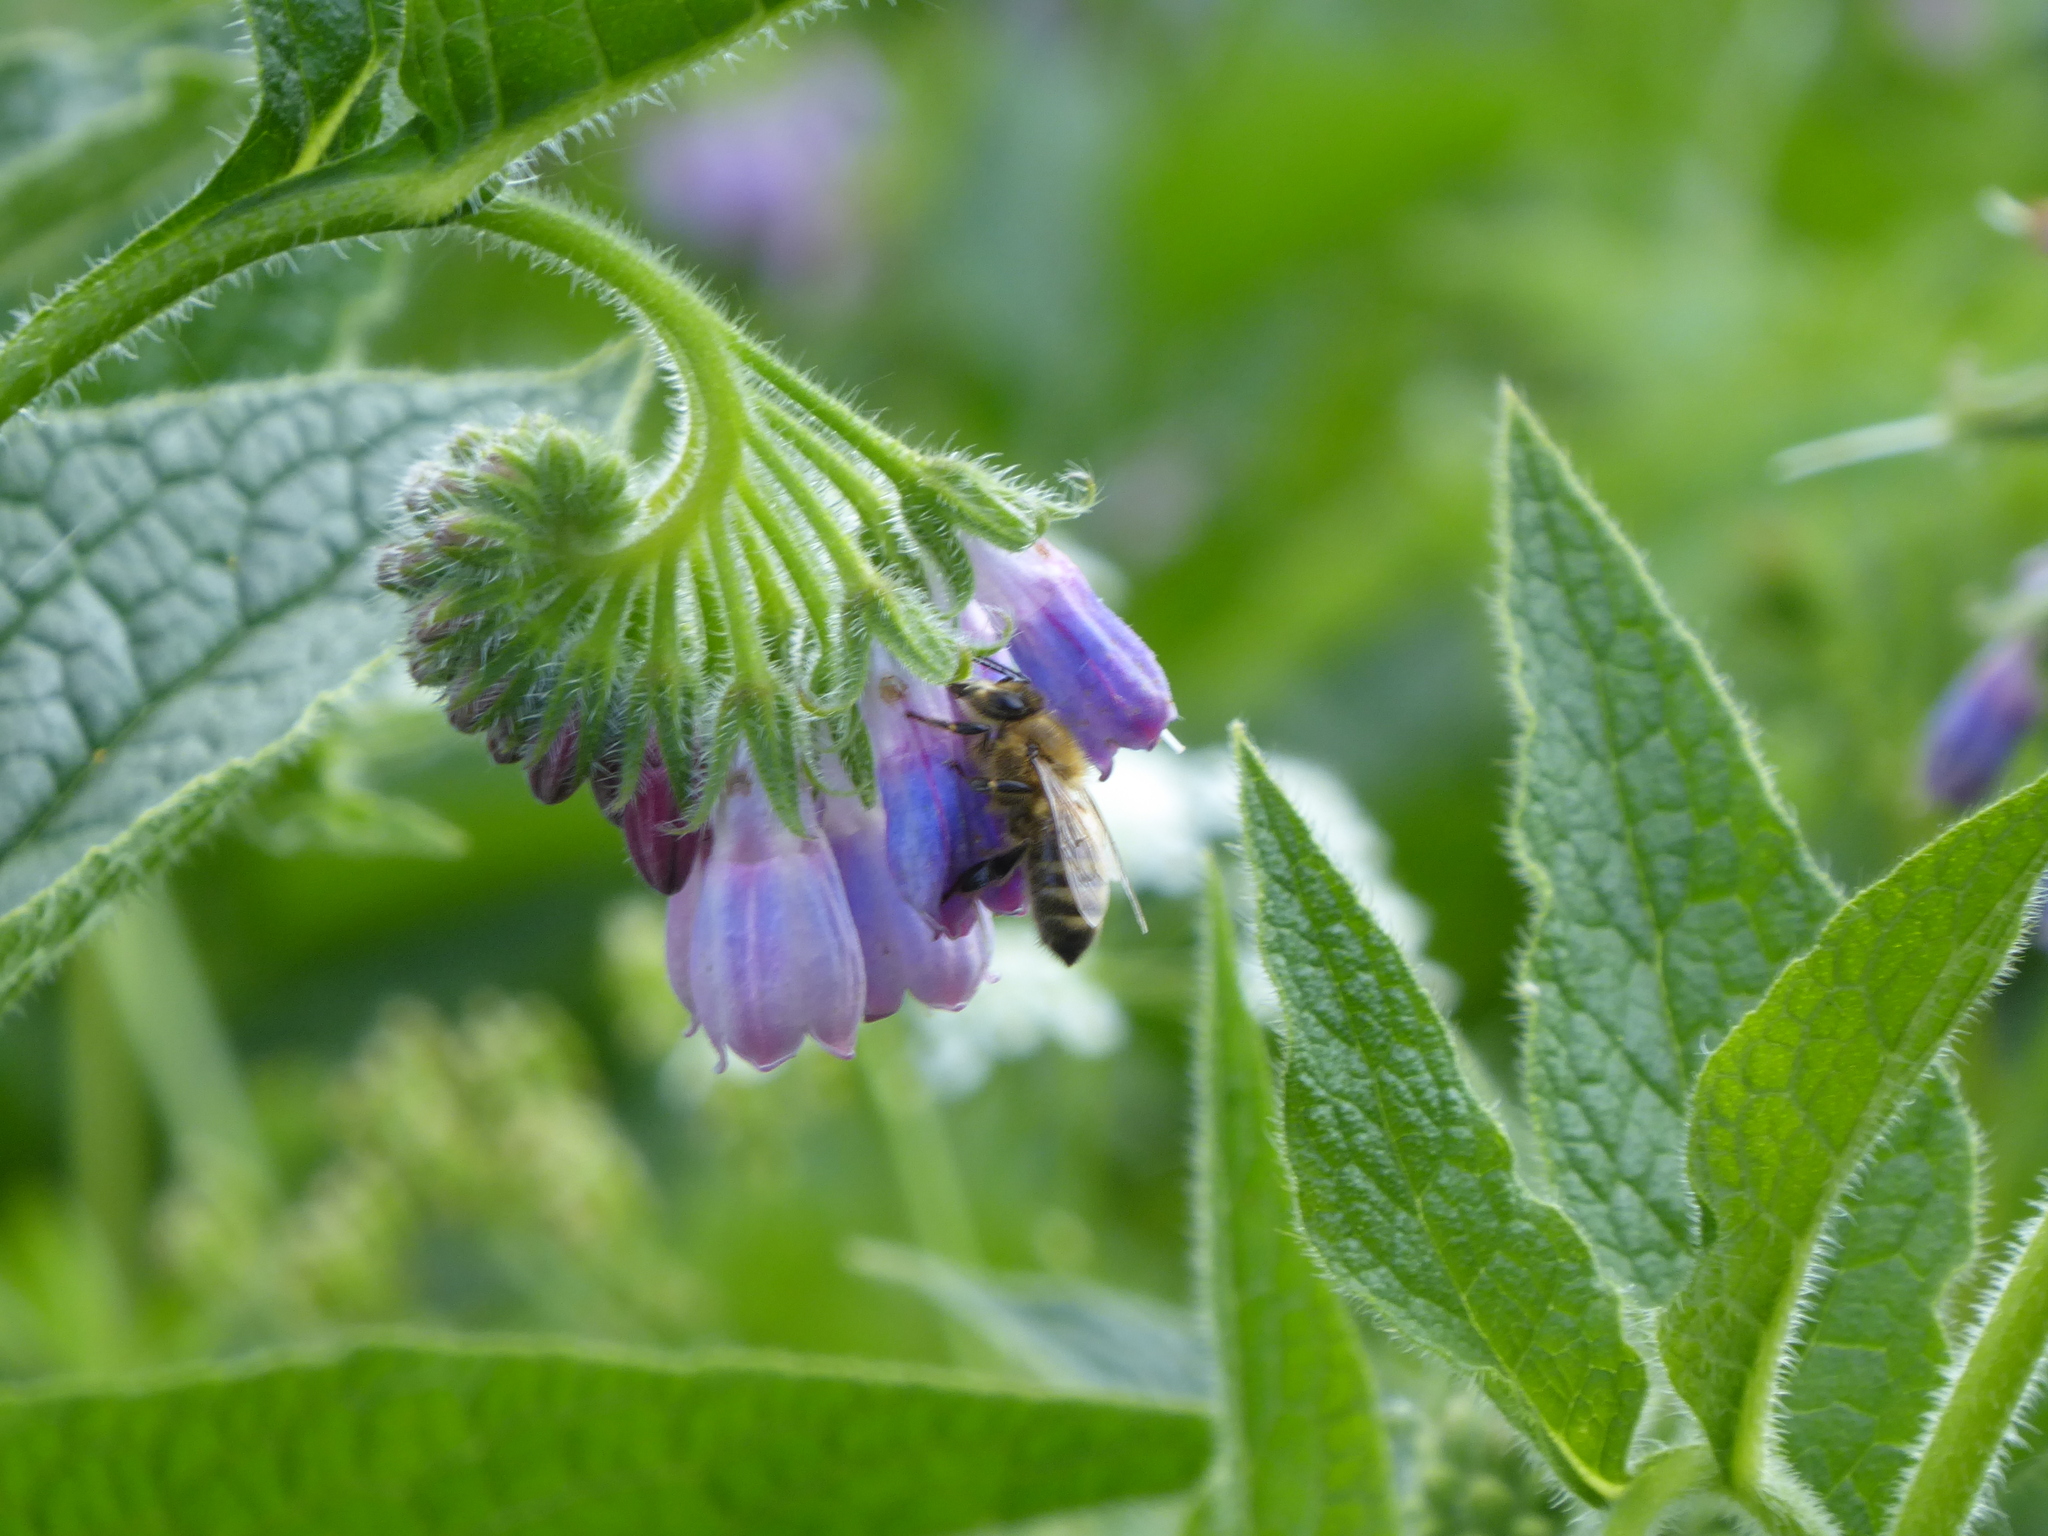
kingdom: Animalia
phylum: Arthropoda
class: Insecta
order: Hymenoptera
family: Apidae
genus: Apis
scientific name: Apis mellifera
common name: Honey bee
